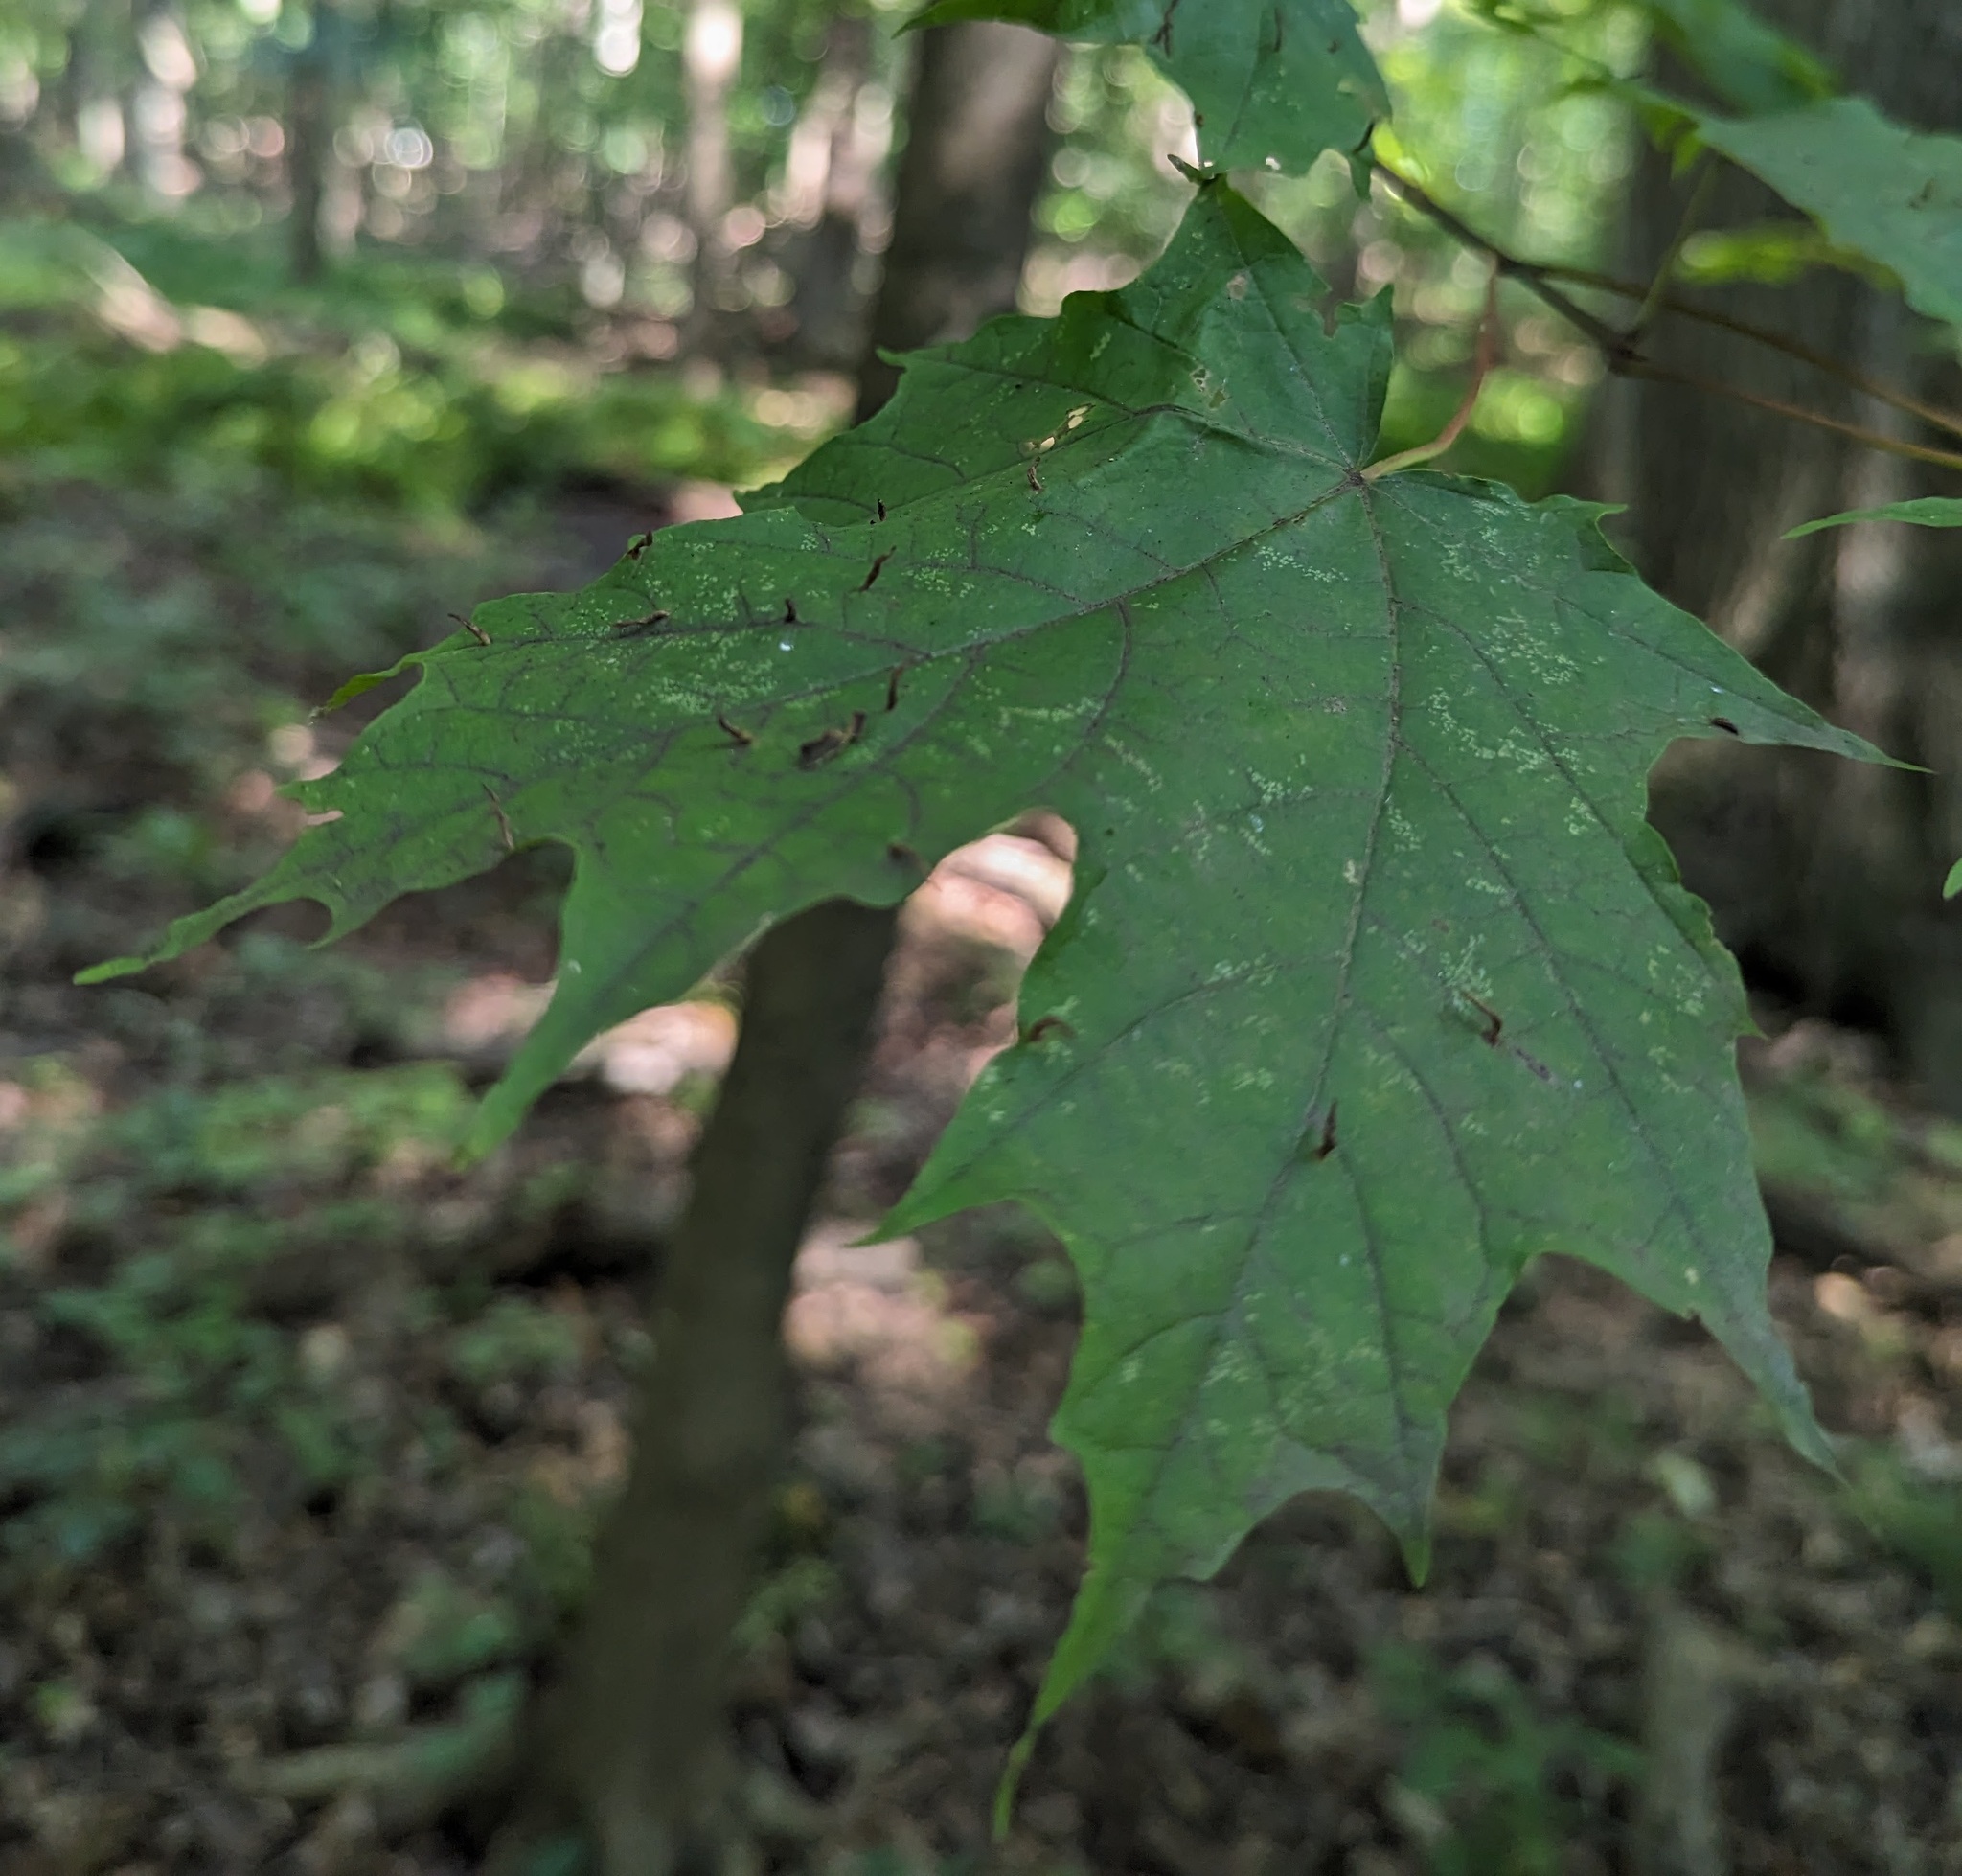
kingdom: Animalia
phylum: Arthropoda
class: Arachnida
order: Trombidiformes
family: Eriophyidae
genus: Vasates
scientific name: Vasates aceriscrumena
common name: Maple spindle gall mite
